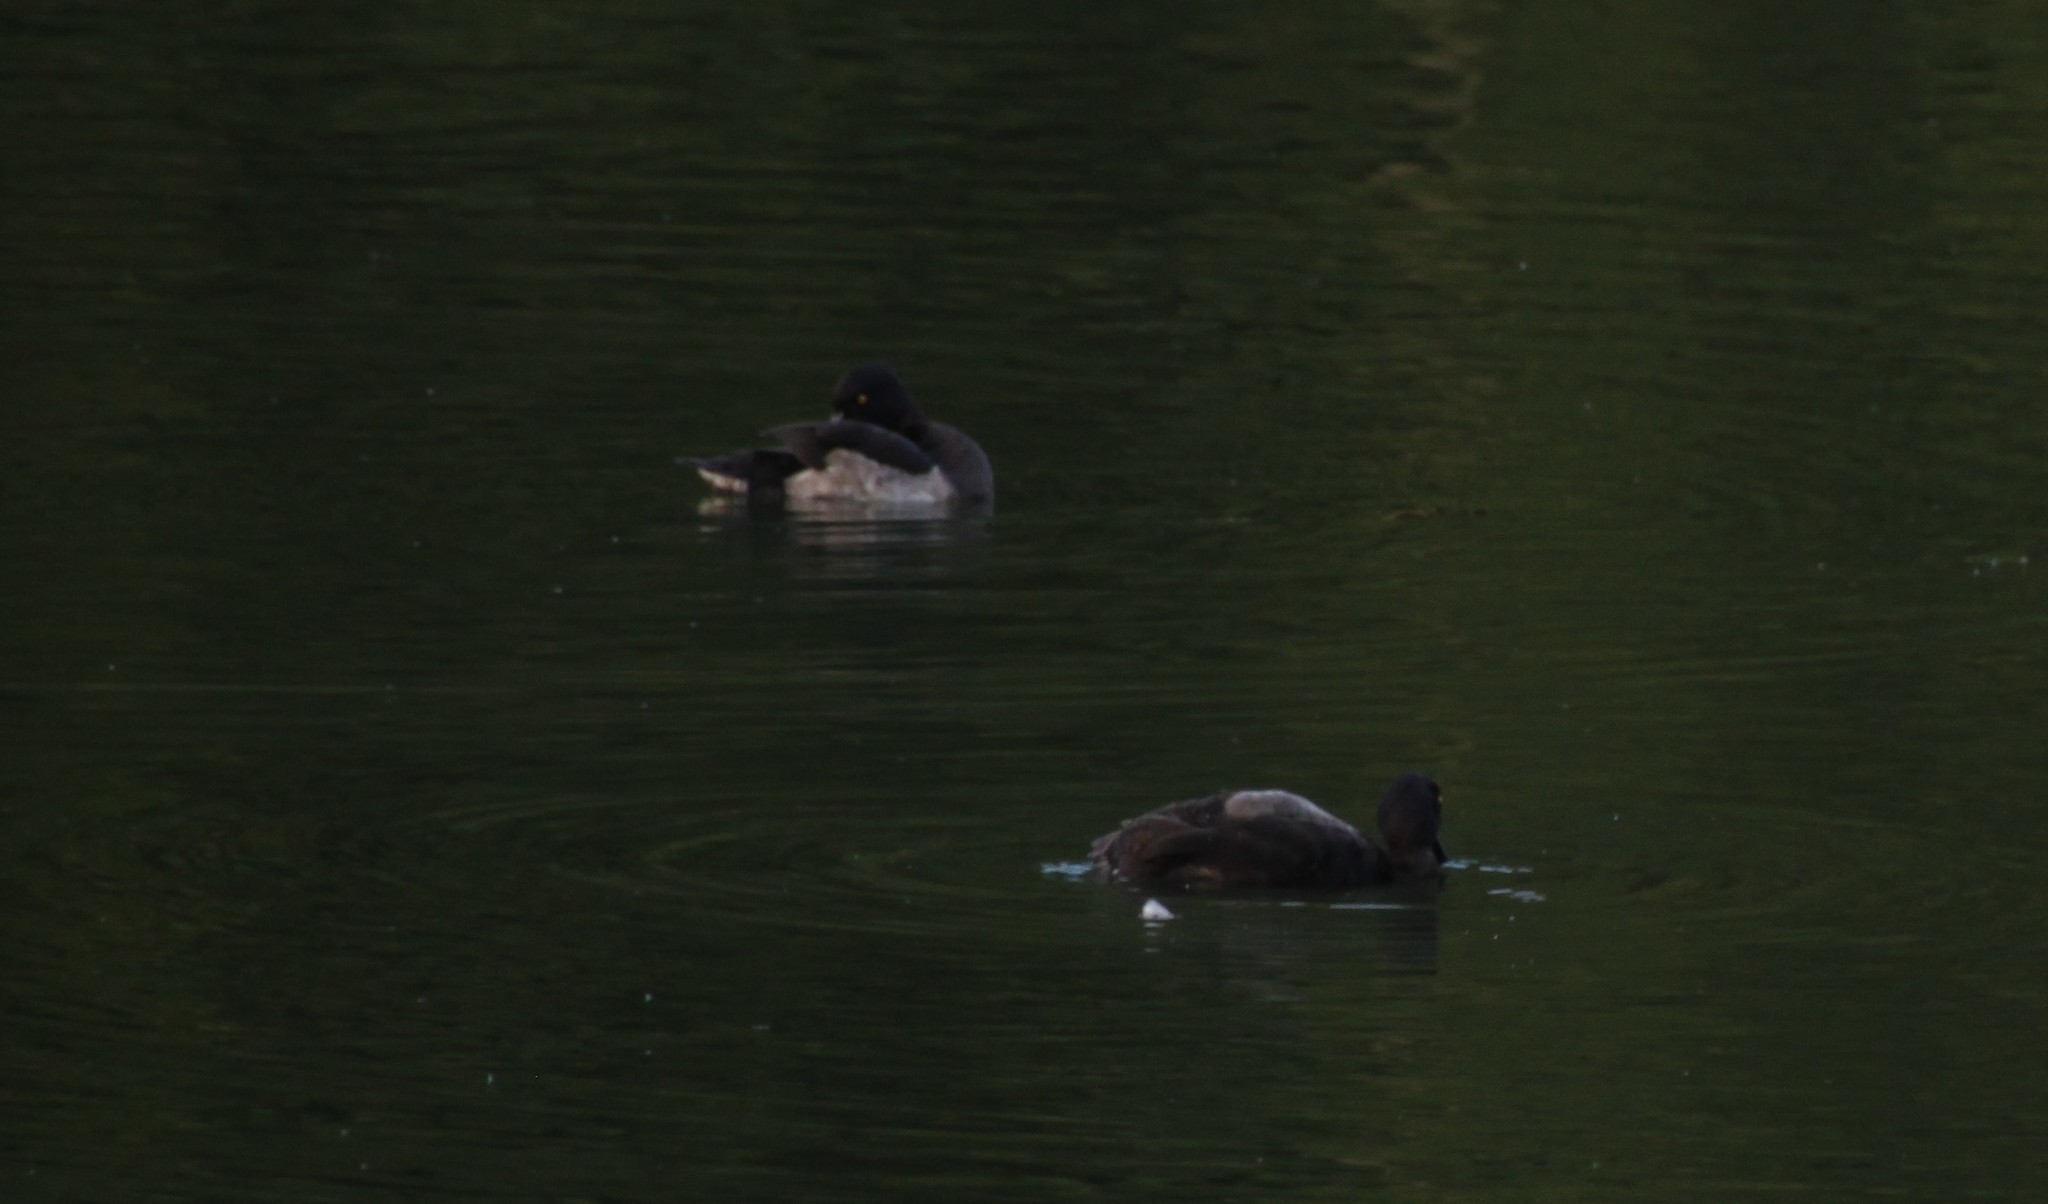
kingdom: Animalia
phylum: Chordata
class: Aves
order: Anseriformes
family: Anatidae
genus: Aythya
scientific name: Aythya fuligula
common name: Tufted duck
